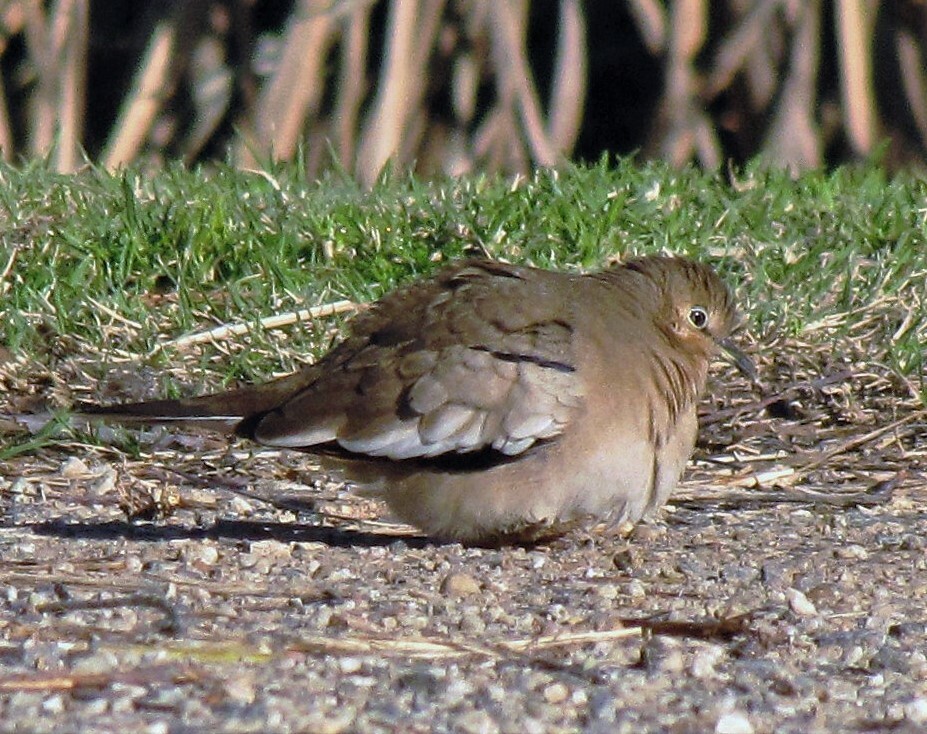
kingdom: Animalia
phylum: Chordata
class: Aves
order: Columbiformes
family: Columbidae
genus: Columbina
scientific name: Columbina picui
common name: Picui ground dove
